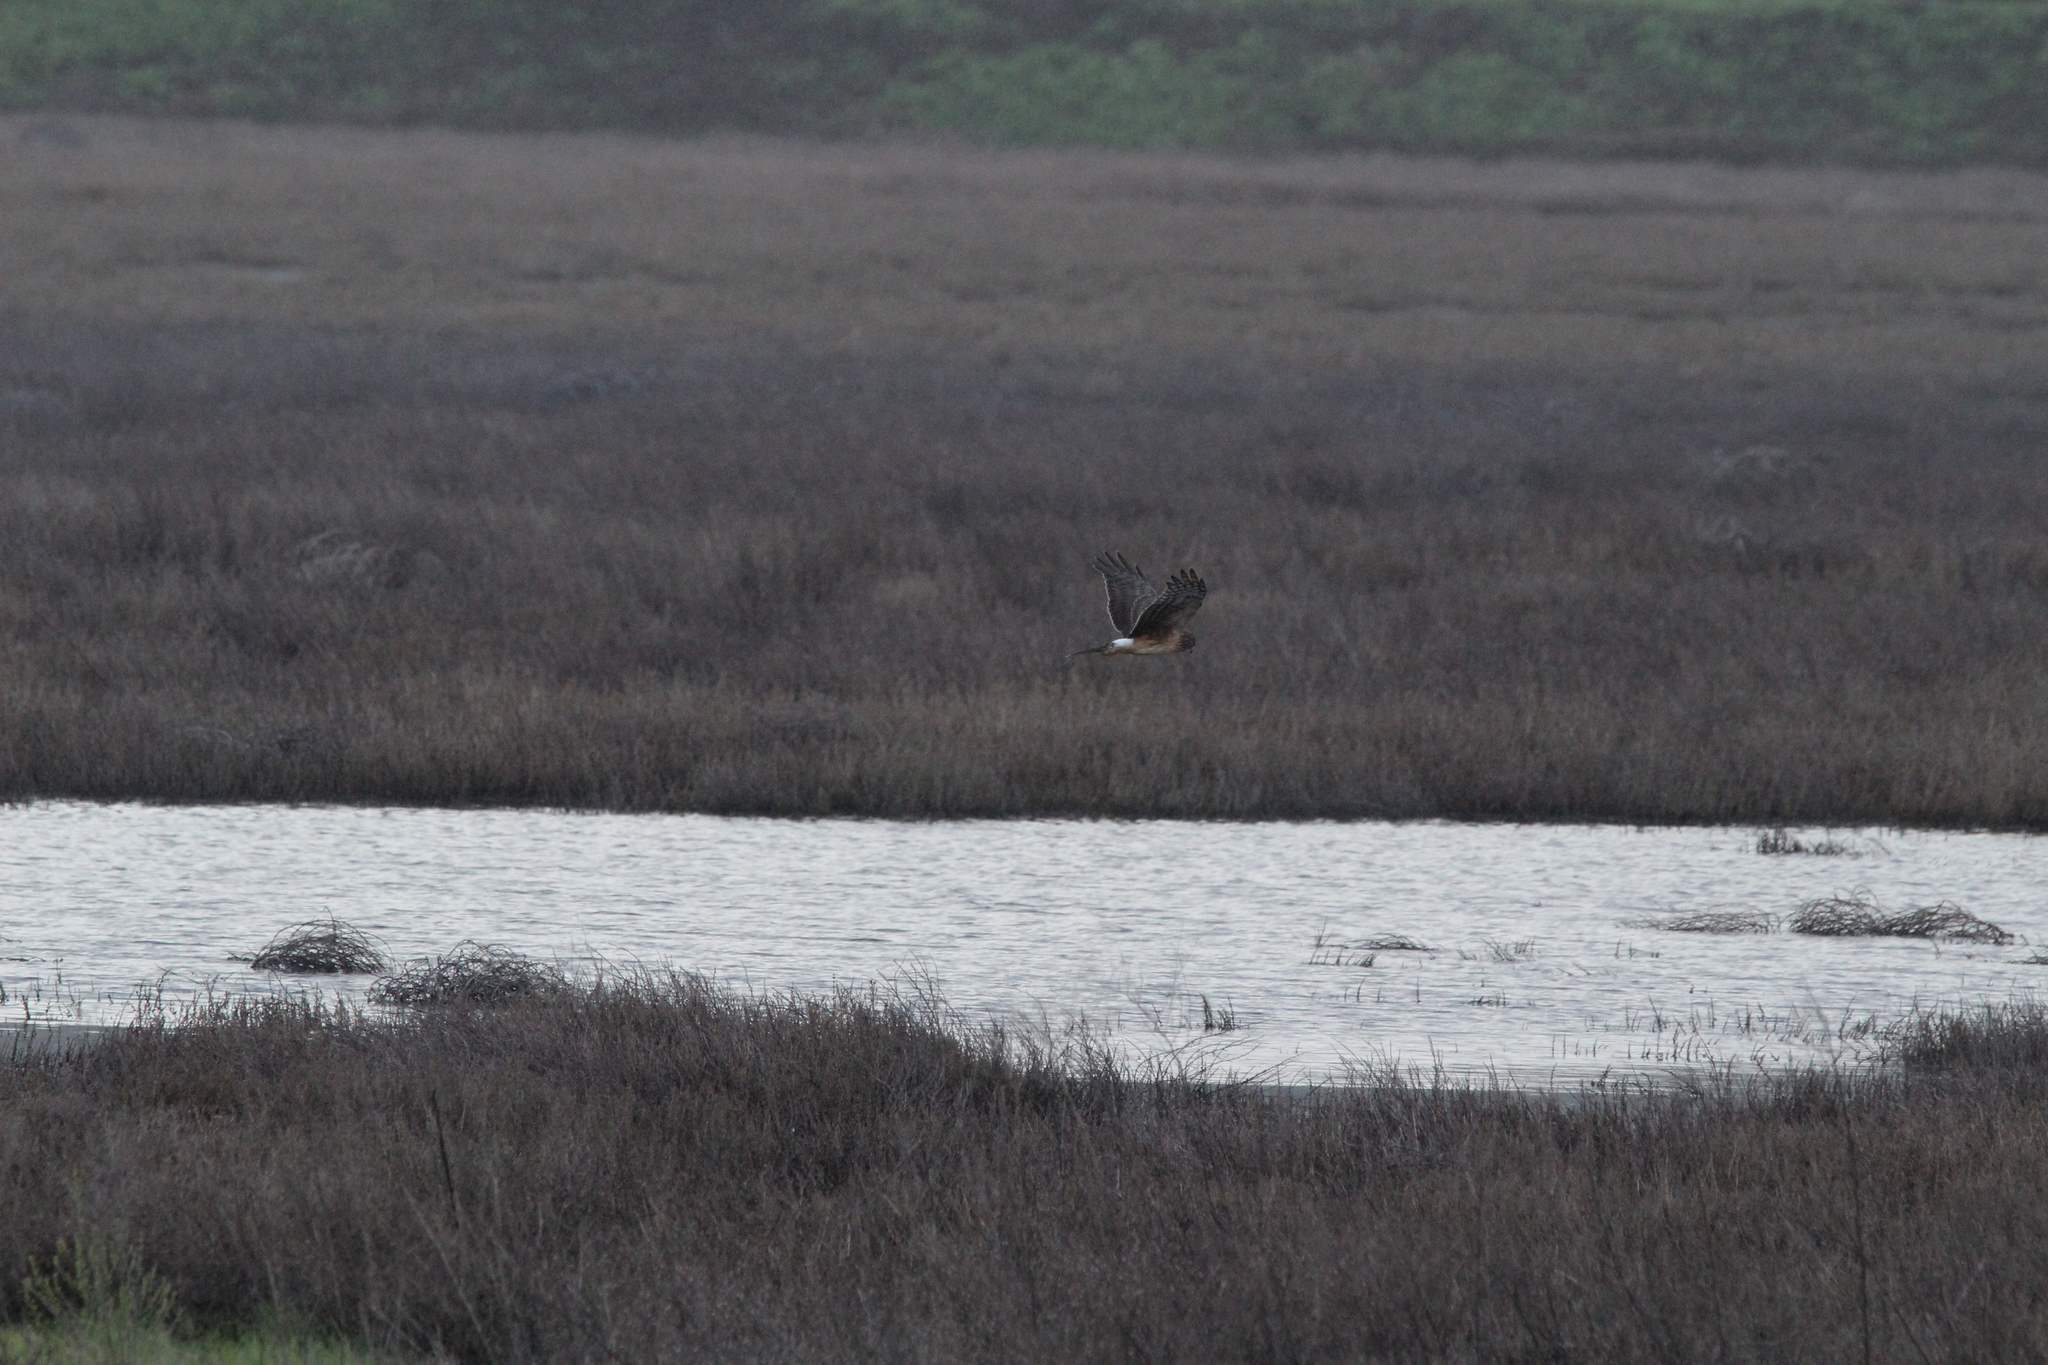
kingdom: Animalia
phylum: Chordata
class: Aves
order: Accipitriformes
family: Accipitridae
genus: Circus
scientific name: Circus cyaneus
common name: Hen harrier
